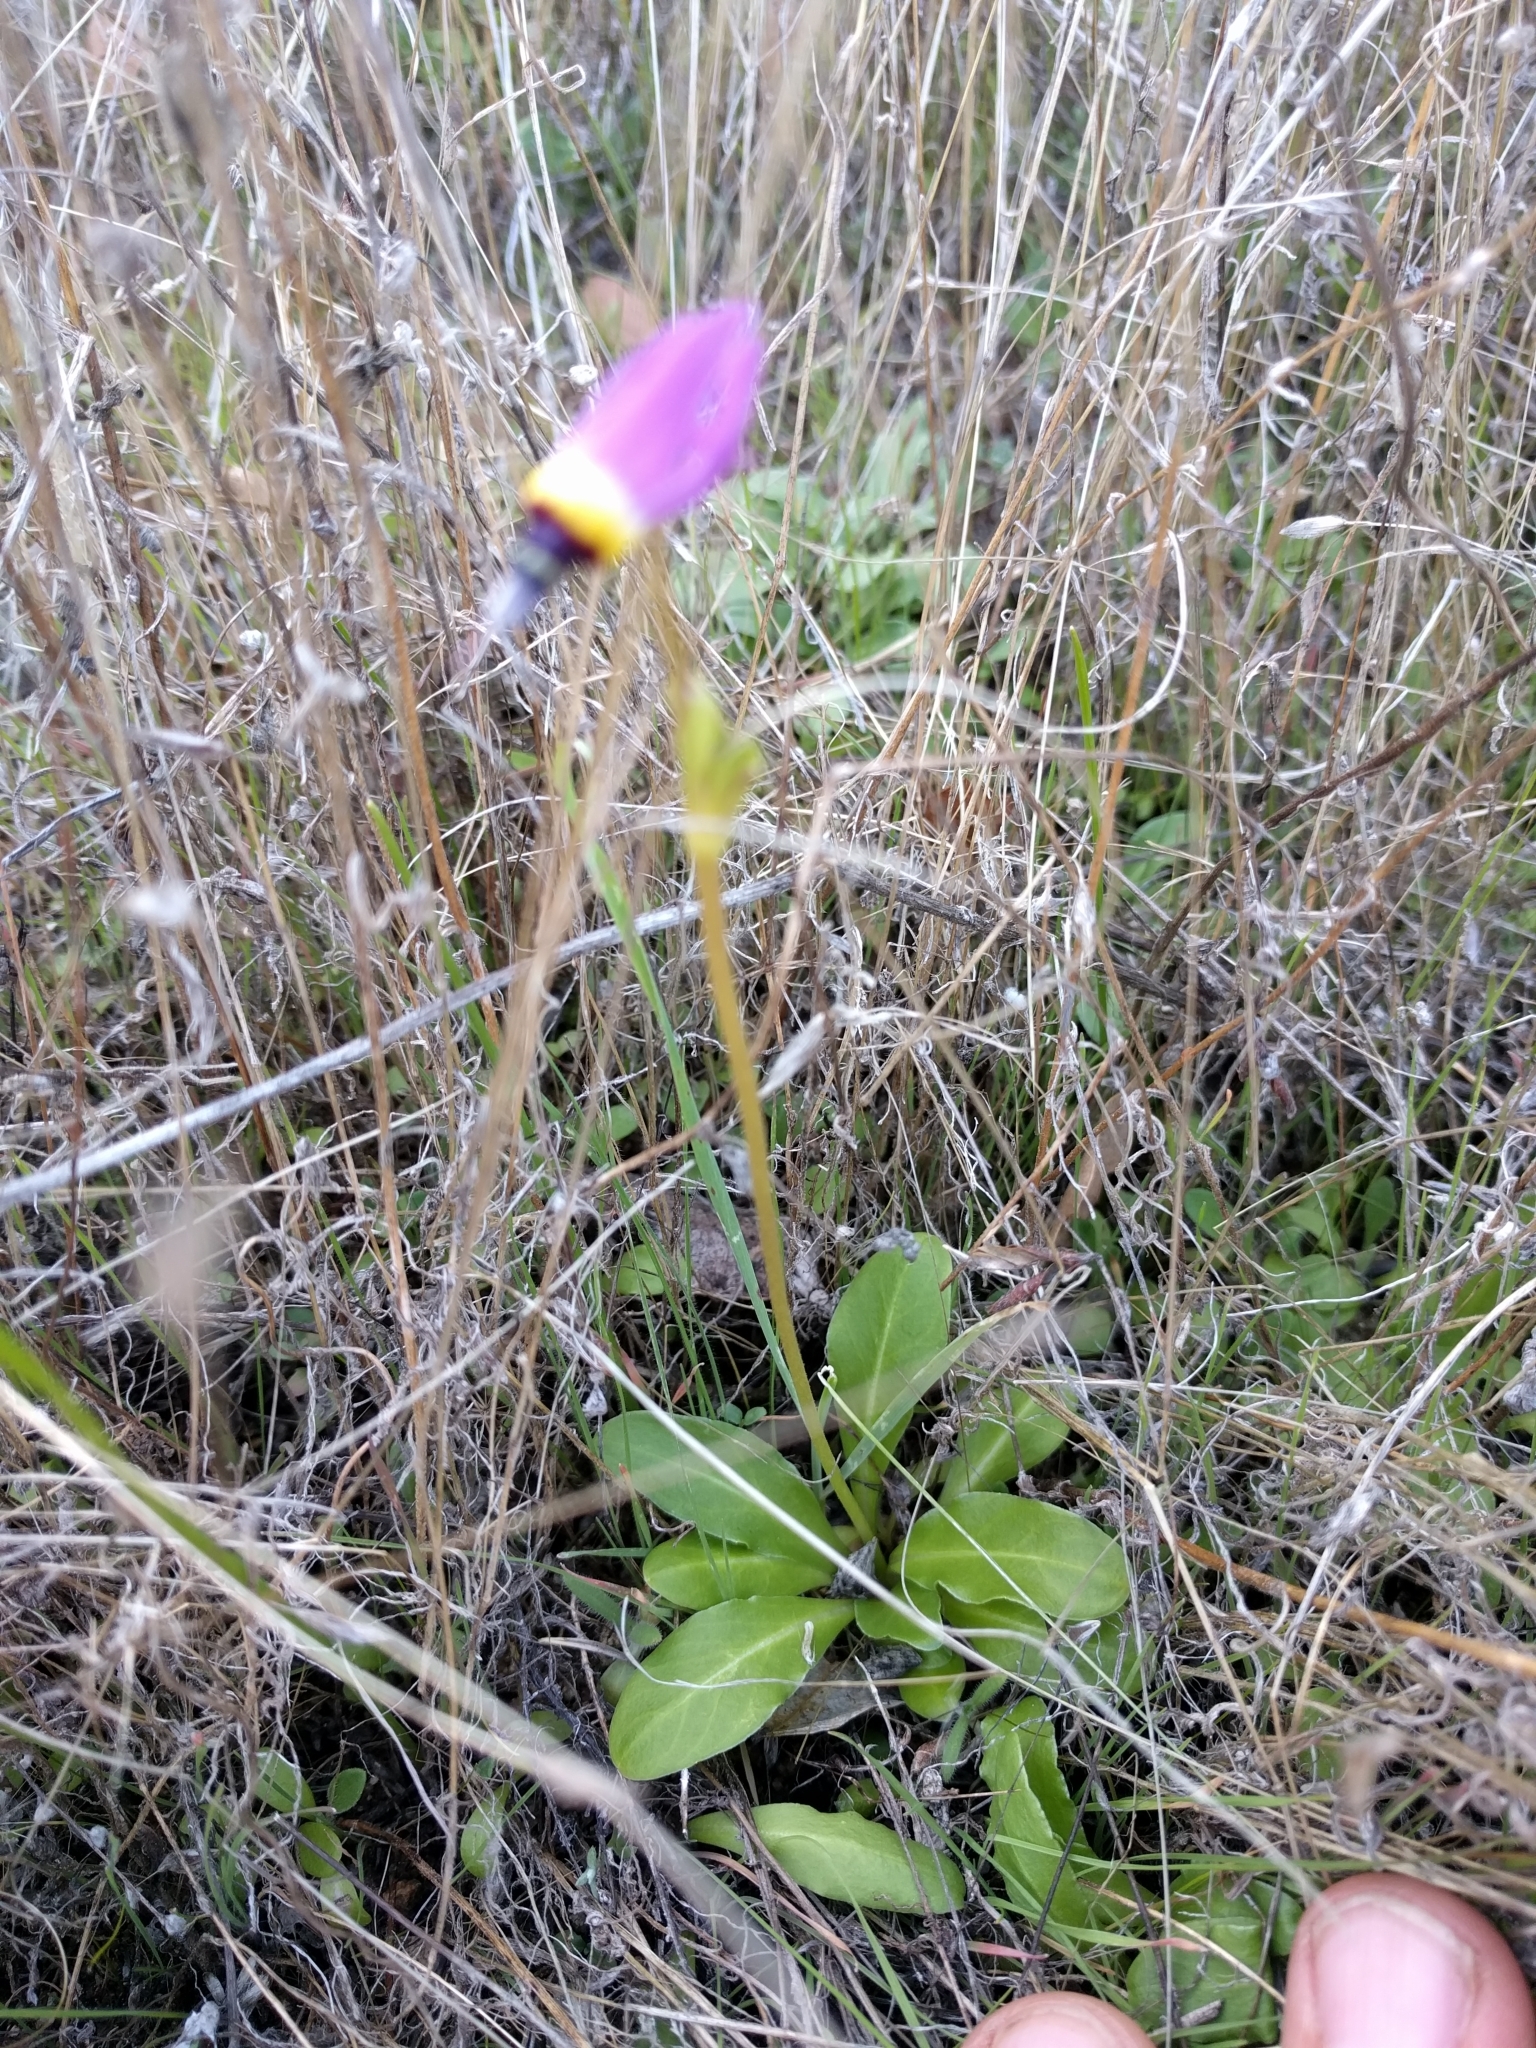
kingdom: Plantae
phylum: Tracheophyta
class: Magnoliopsida
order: Ericales
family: Primulaceae
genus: Dodecatheon
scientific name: Dodecatheon clevelandii
